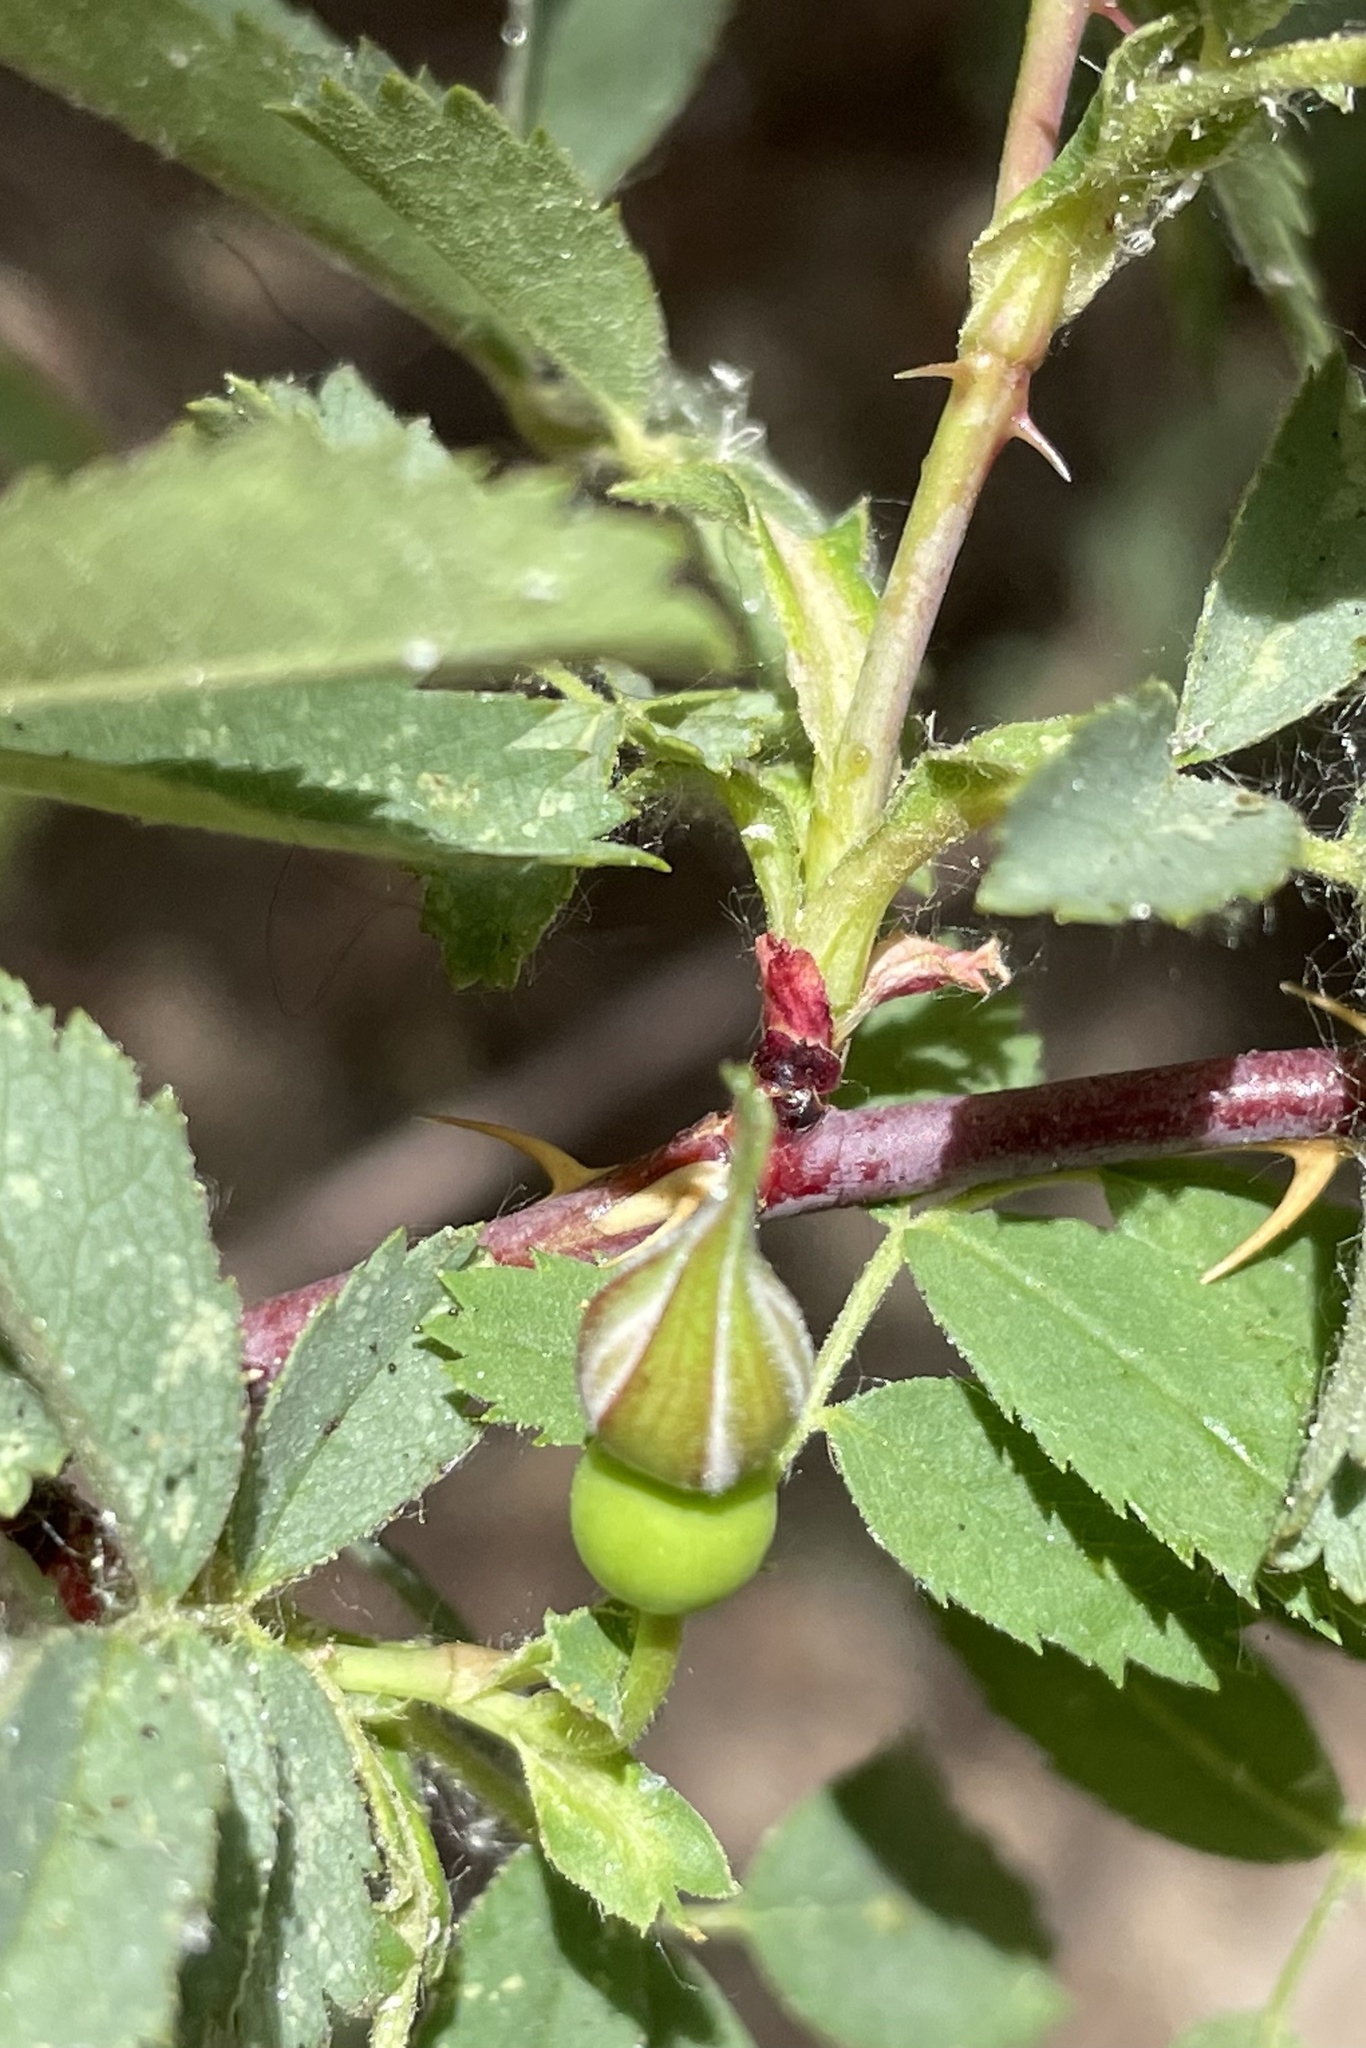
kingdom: Plantae
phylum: Tracheophyta
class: Magnoliopsida
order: Rosales
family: Rosaceae
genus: Rosa
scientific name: Rosa woodsii
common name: Woods's rose
